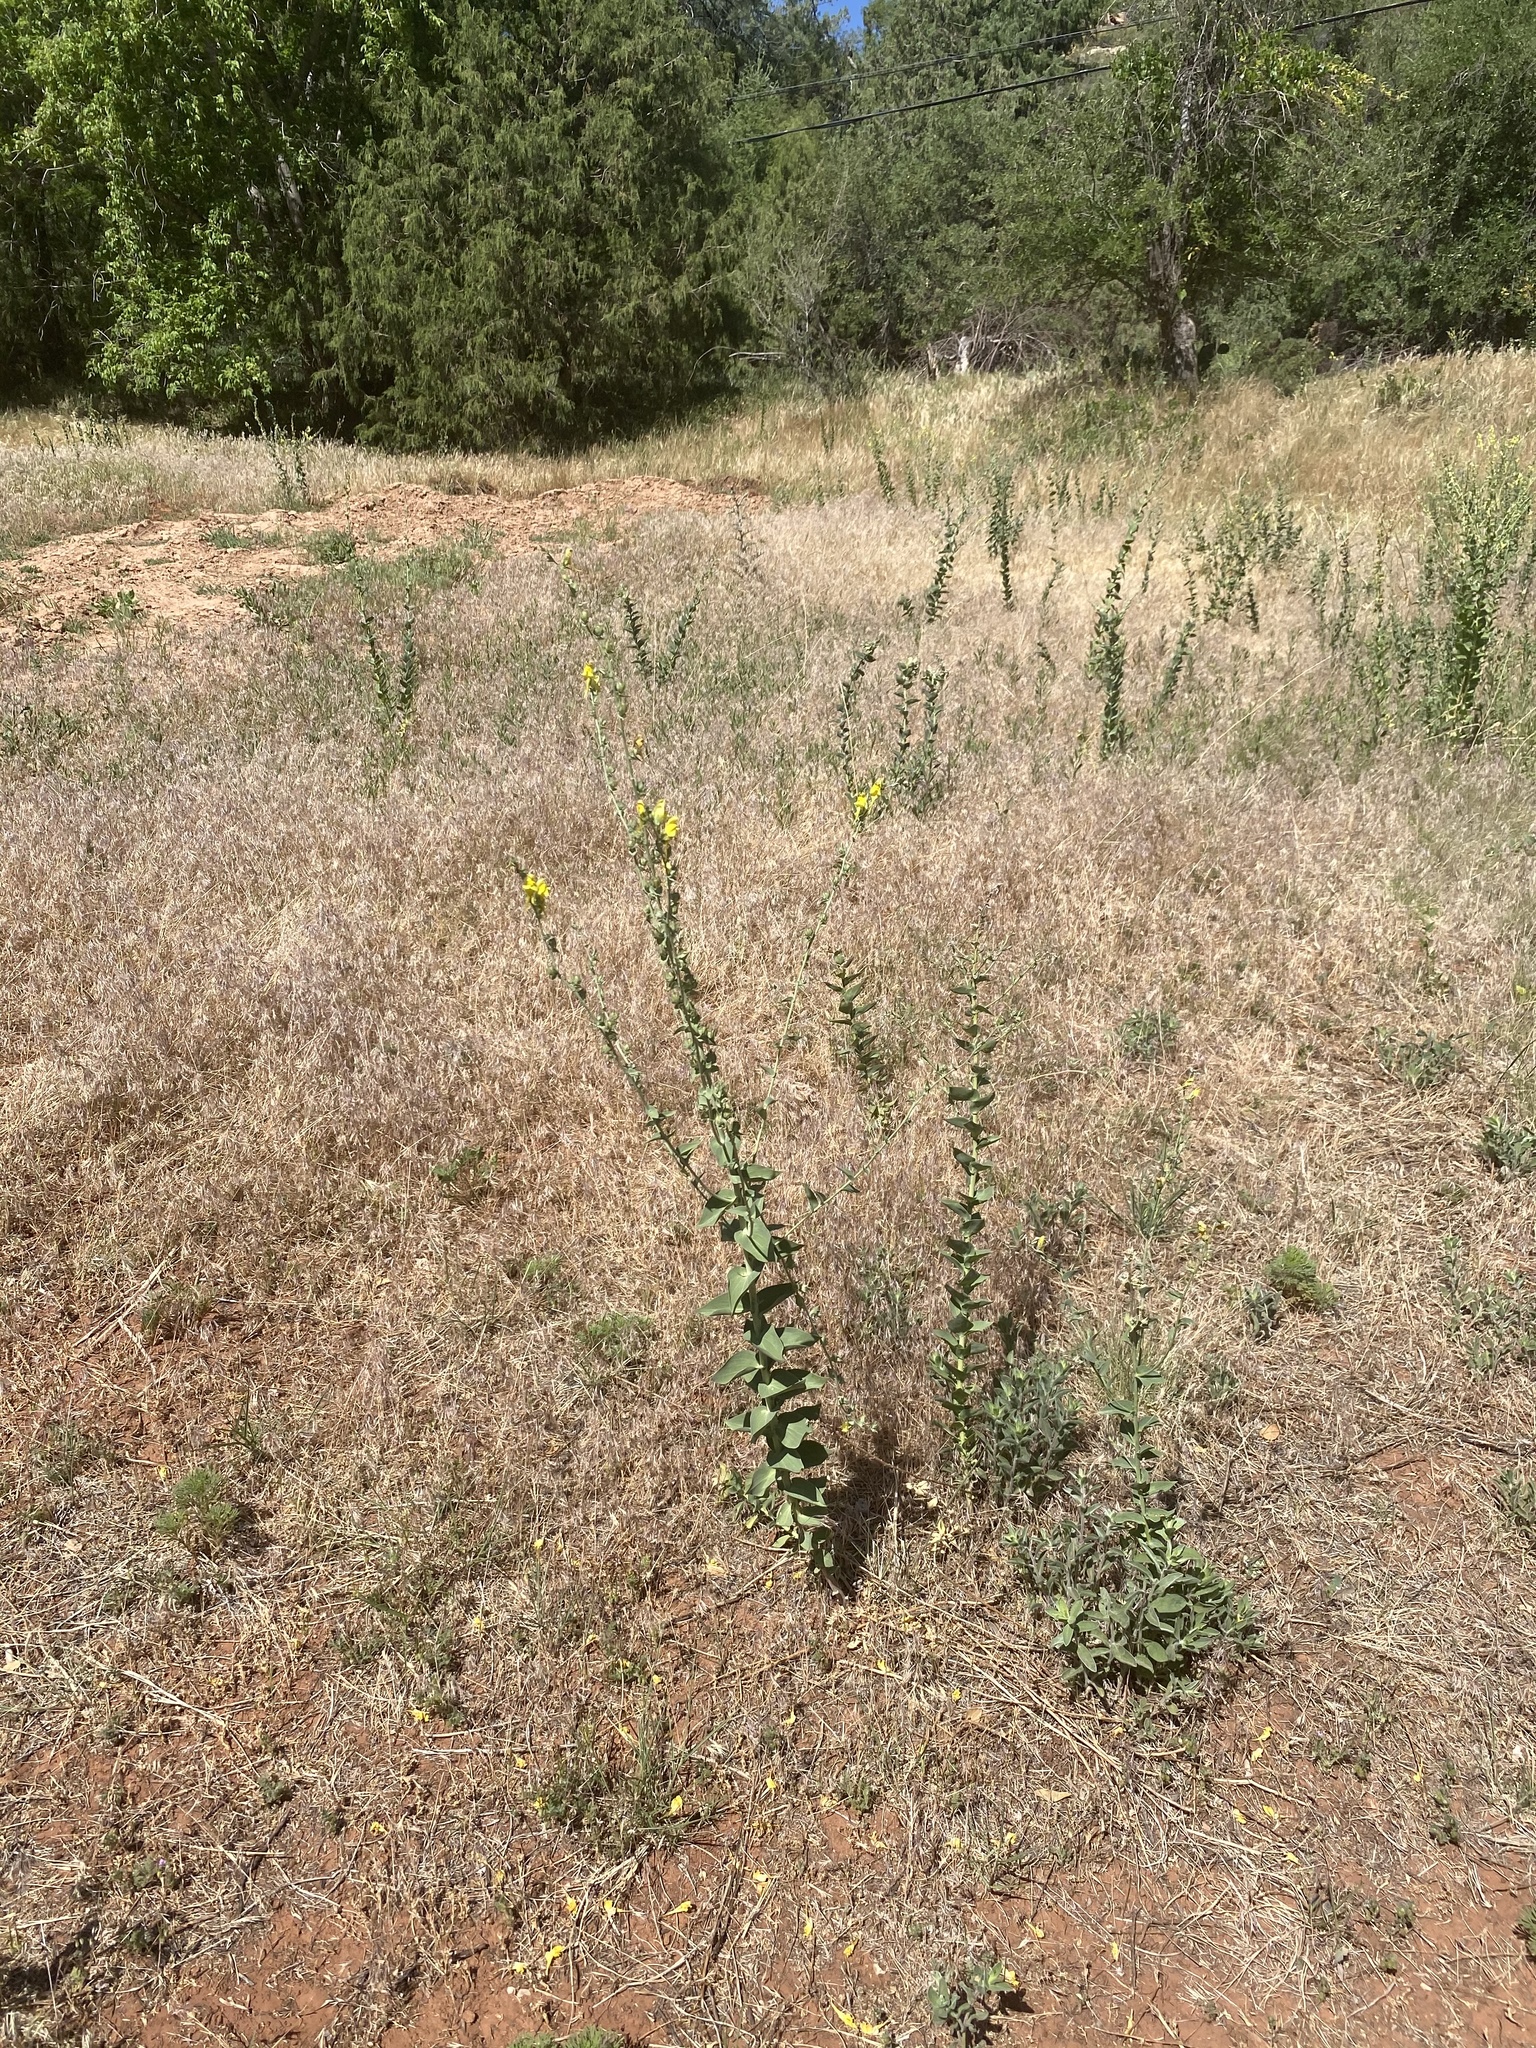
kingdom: Plantae
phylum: Tracheophyta
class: Magnoliopsida
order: Lamiales
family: Plantaginaceae
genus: Linaria
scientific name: Linaria dalmatica
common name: Dalmatian toadflax
